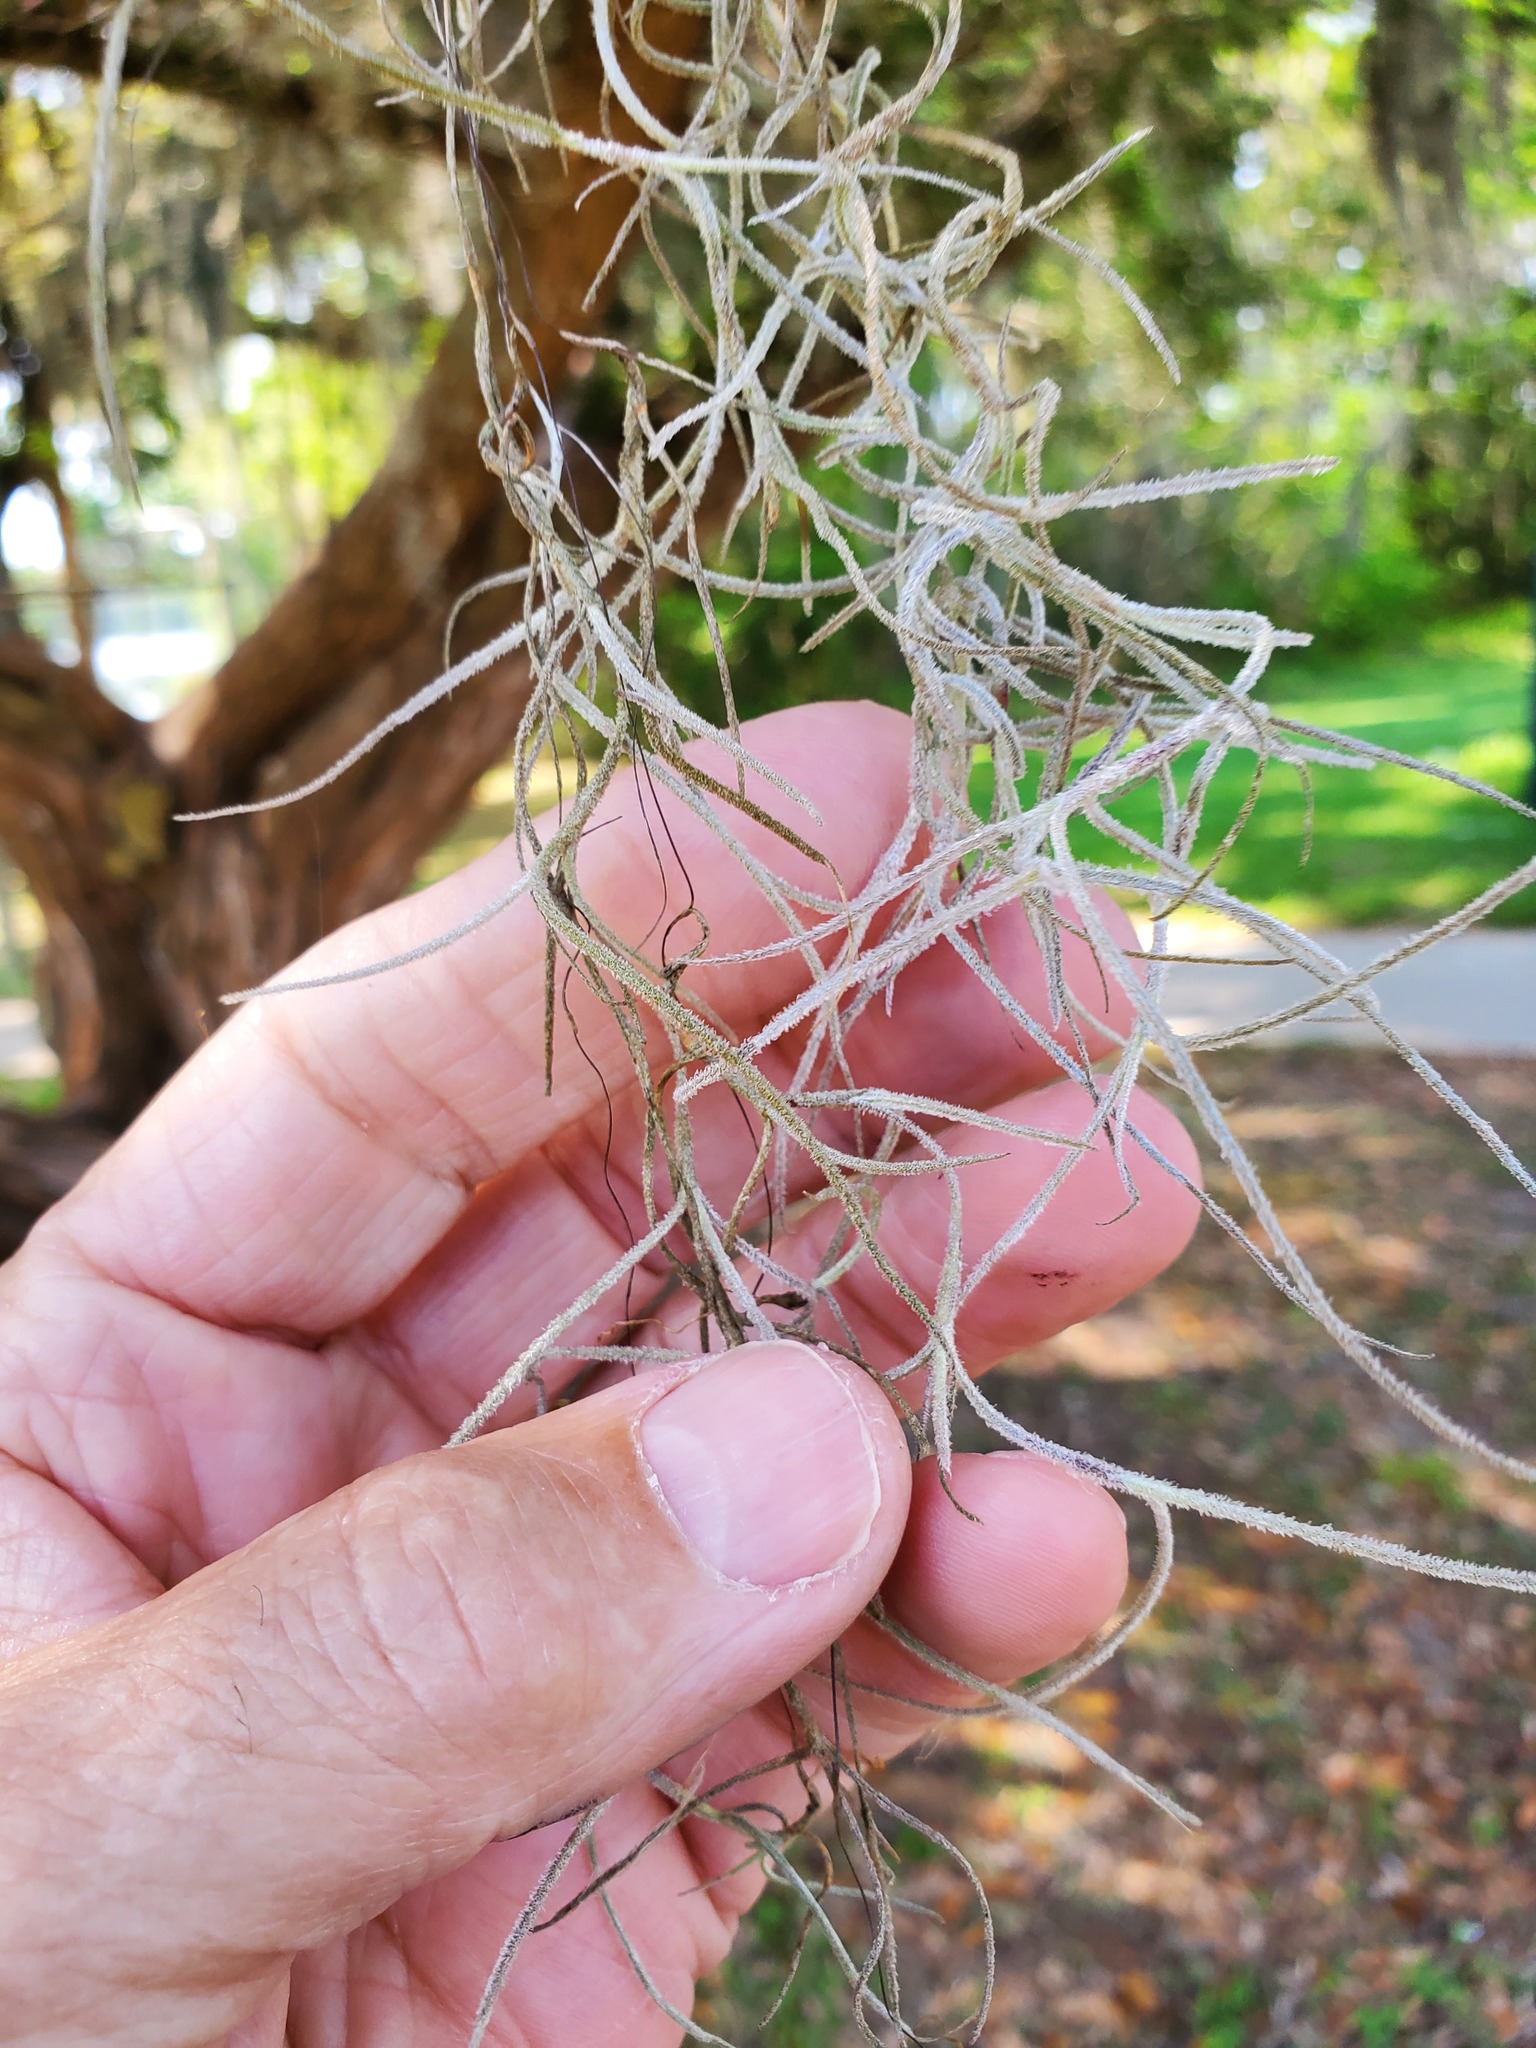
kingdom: Plantae
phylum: Tracheophyta
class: Liliopsida
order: Poales
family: Bromeliaceae
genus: Tillandsia
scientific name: Tillandsia usneoides
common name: Spanish moss
